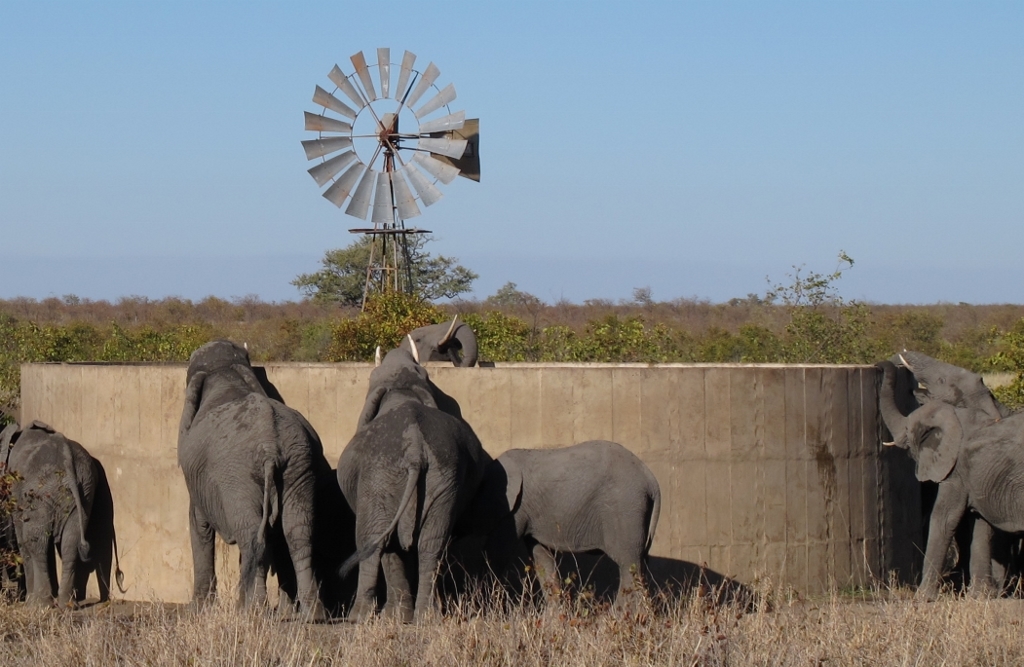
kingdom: Animalia
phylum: Chordata
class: Mammalia
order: Proboscidea
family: Elephantidae
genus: Loxodonta
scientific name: Loxodonta africana
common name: African elephant
